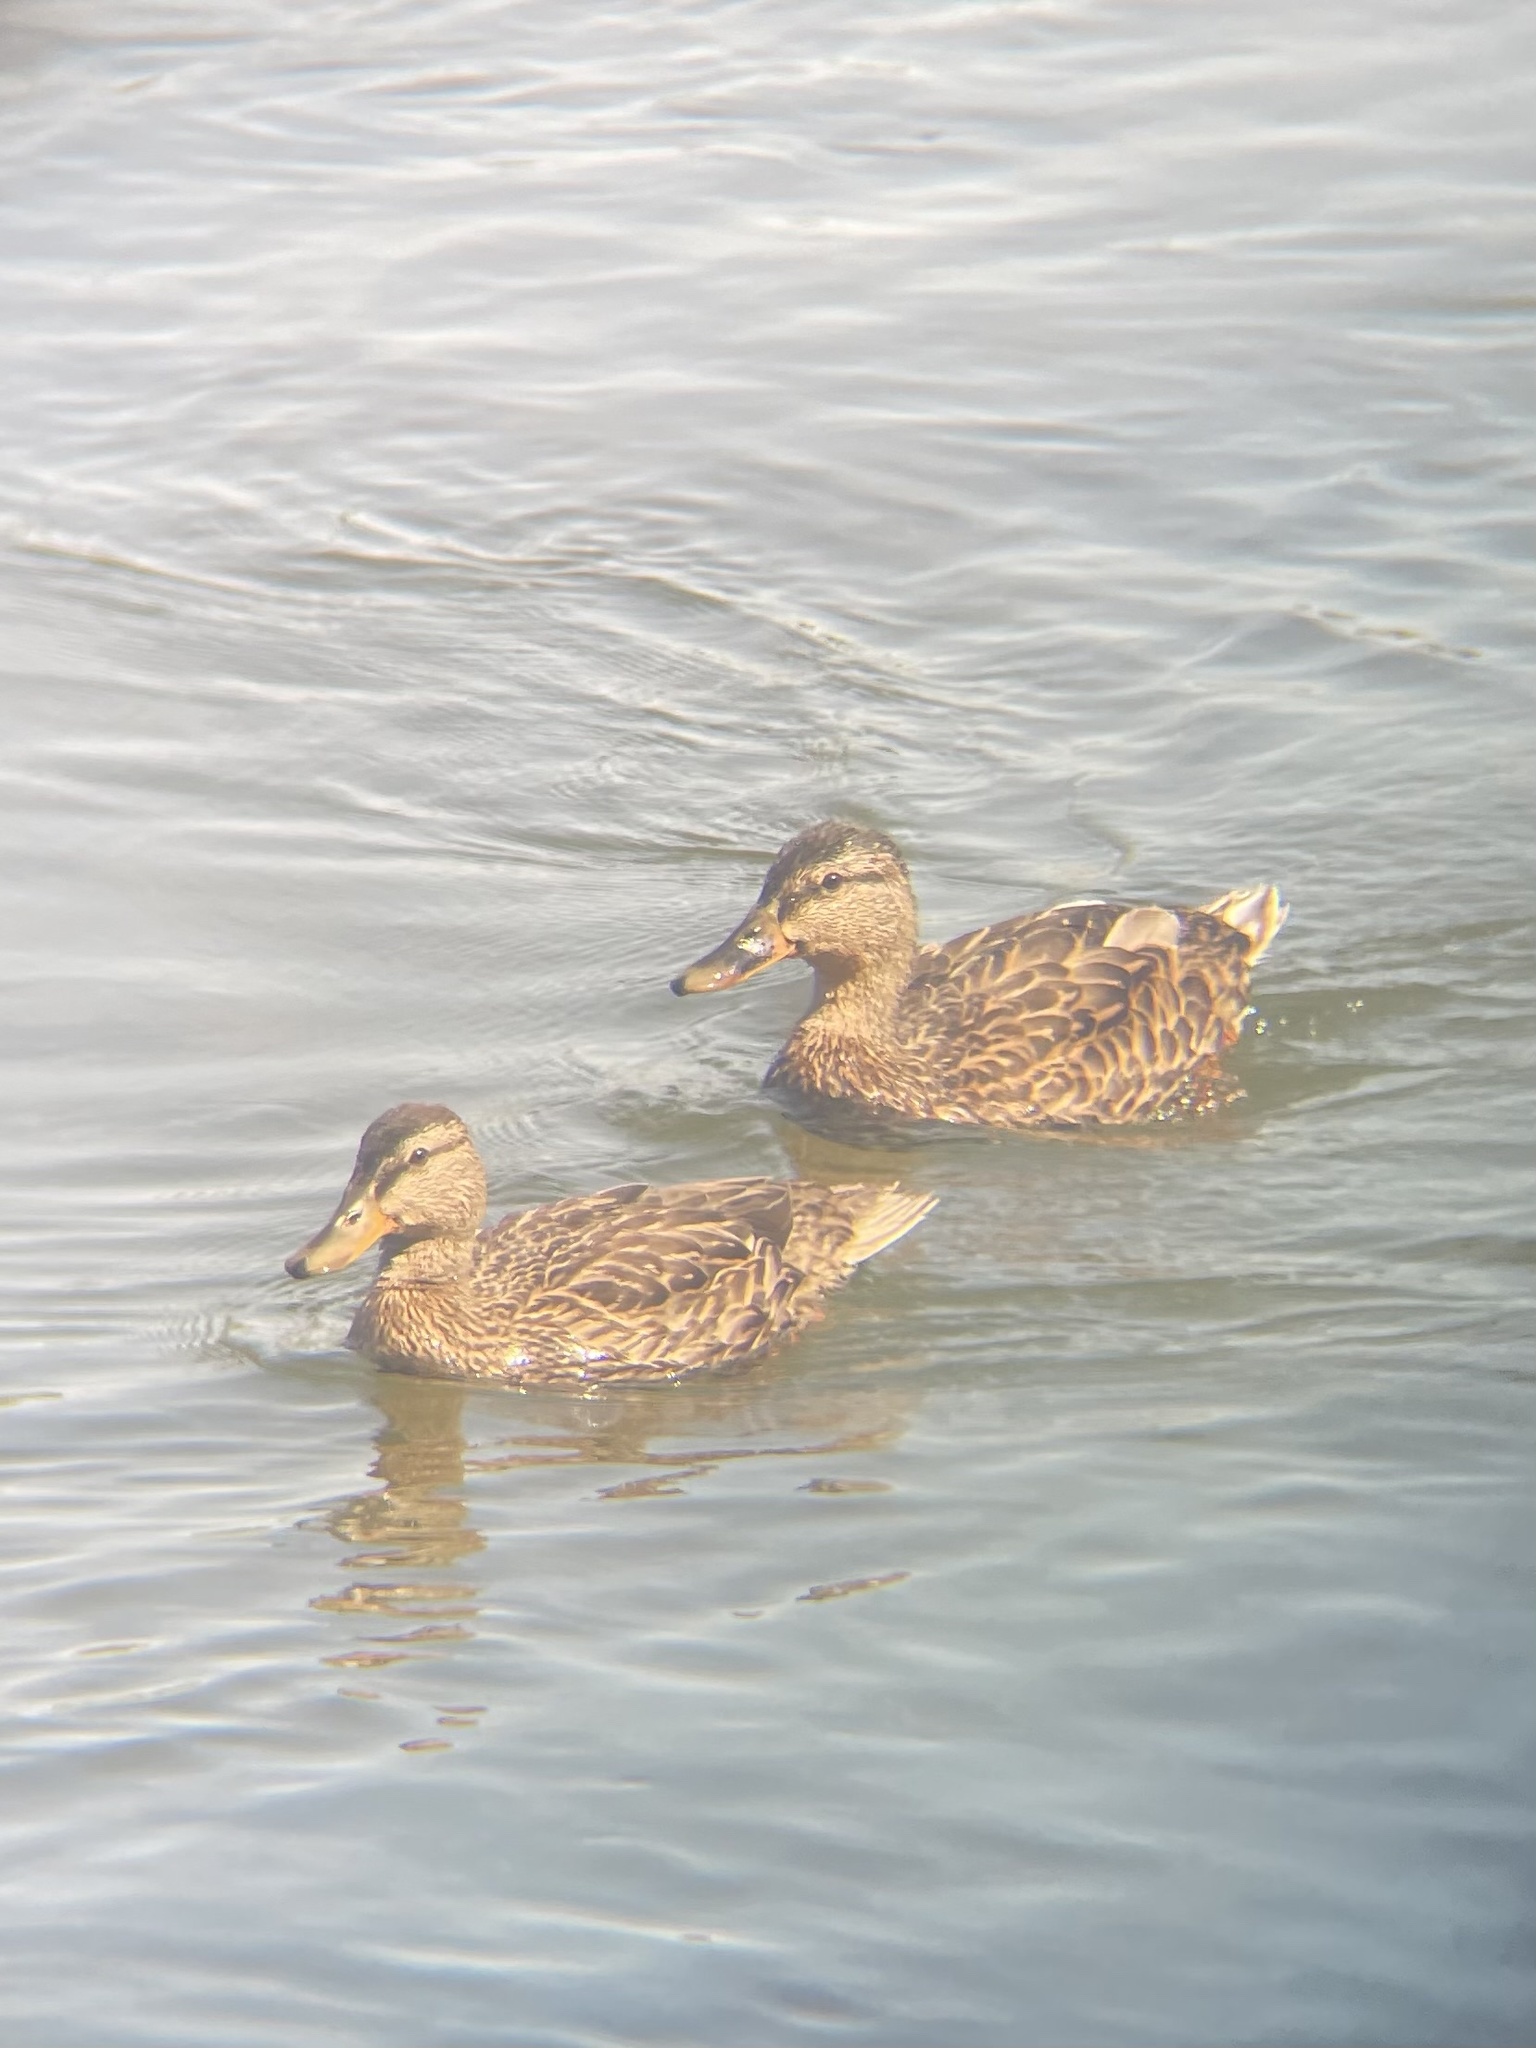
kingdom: Animalia
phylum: Chordata
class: Aves
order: Anseriformes
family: Anatidae
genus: Anas
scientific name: Anas platyrhynchos
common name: Mallard
